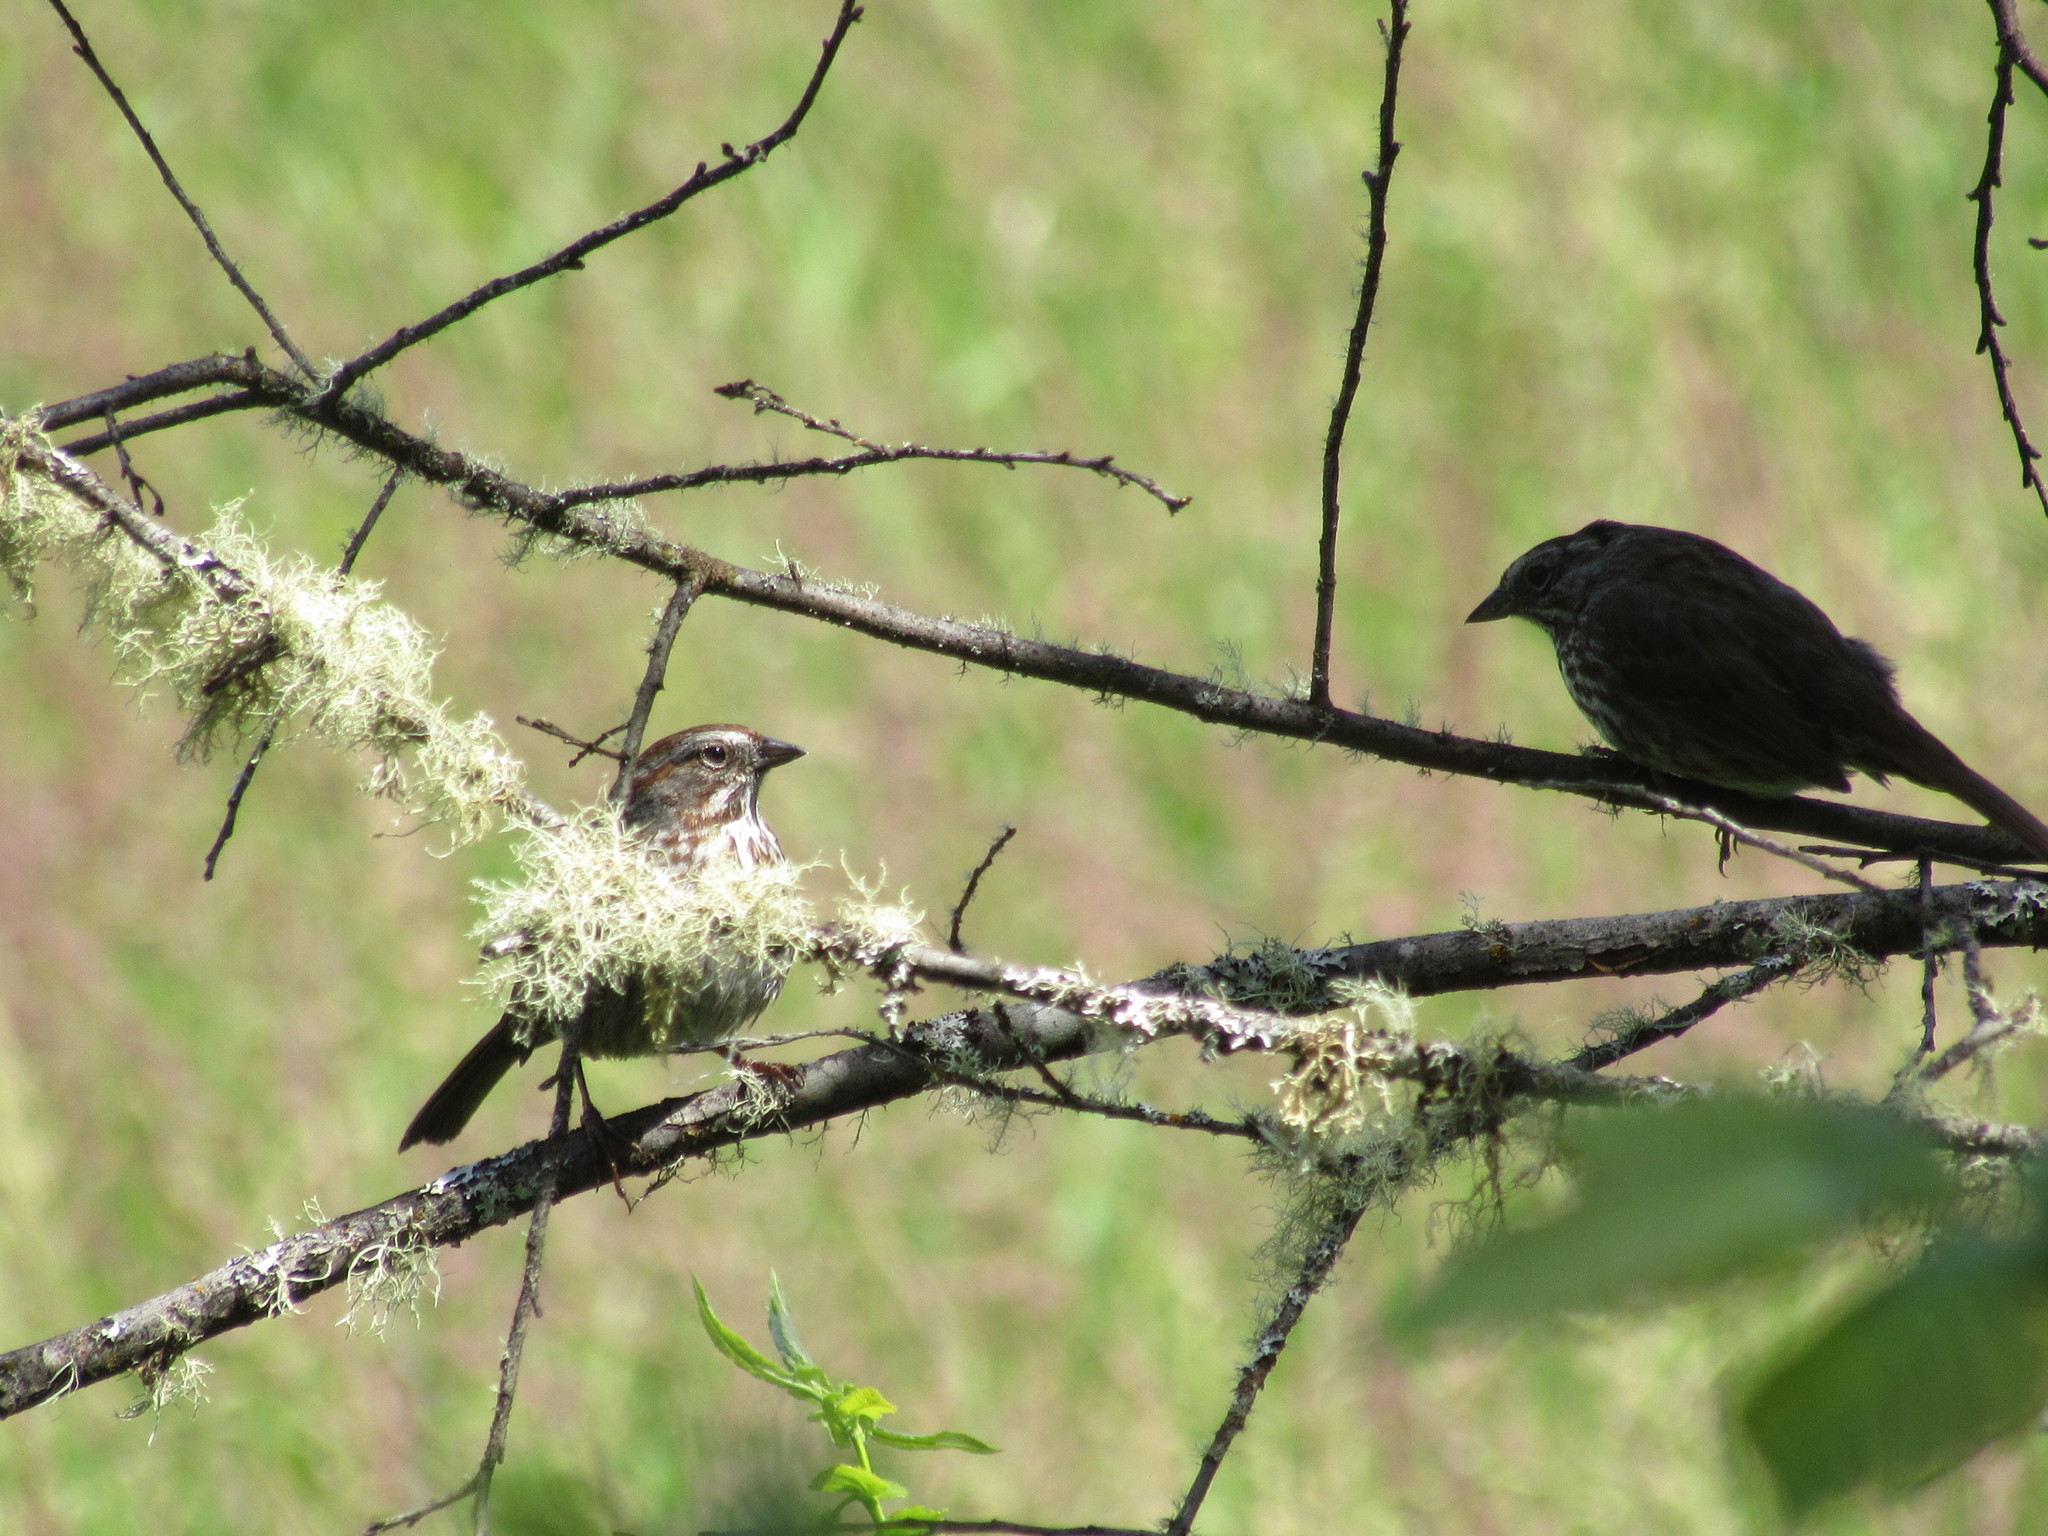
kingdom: Animalia
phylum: Chordata
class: Aves
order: Passeriformes
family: Passerellidae
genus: Melospiza
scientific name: Melospiza melodia
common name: Song sparrow
